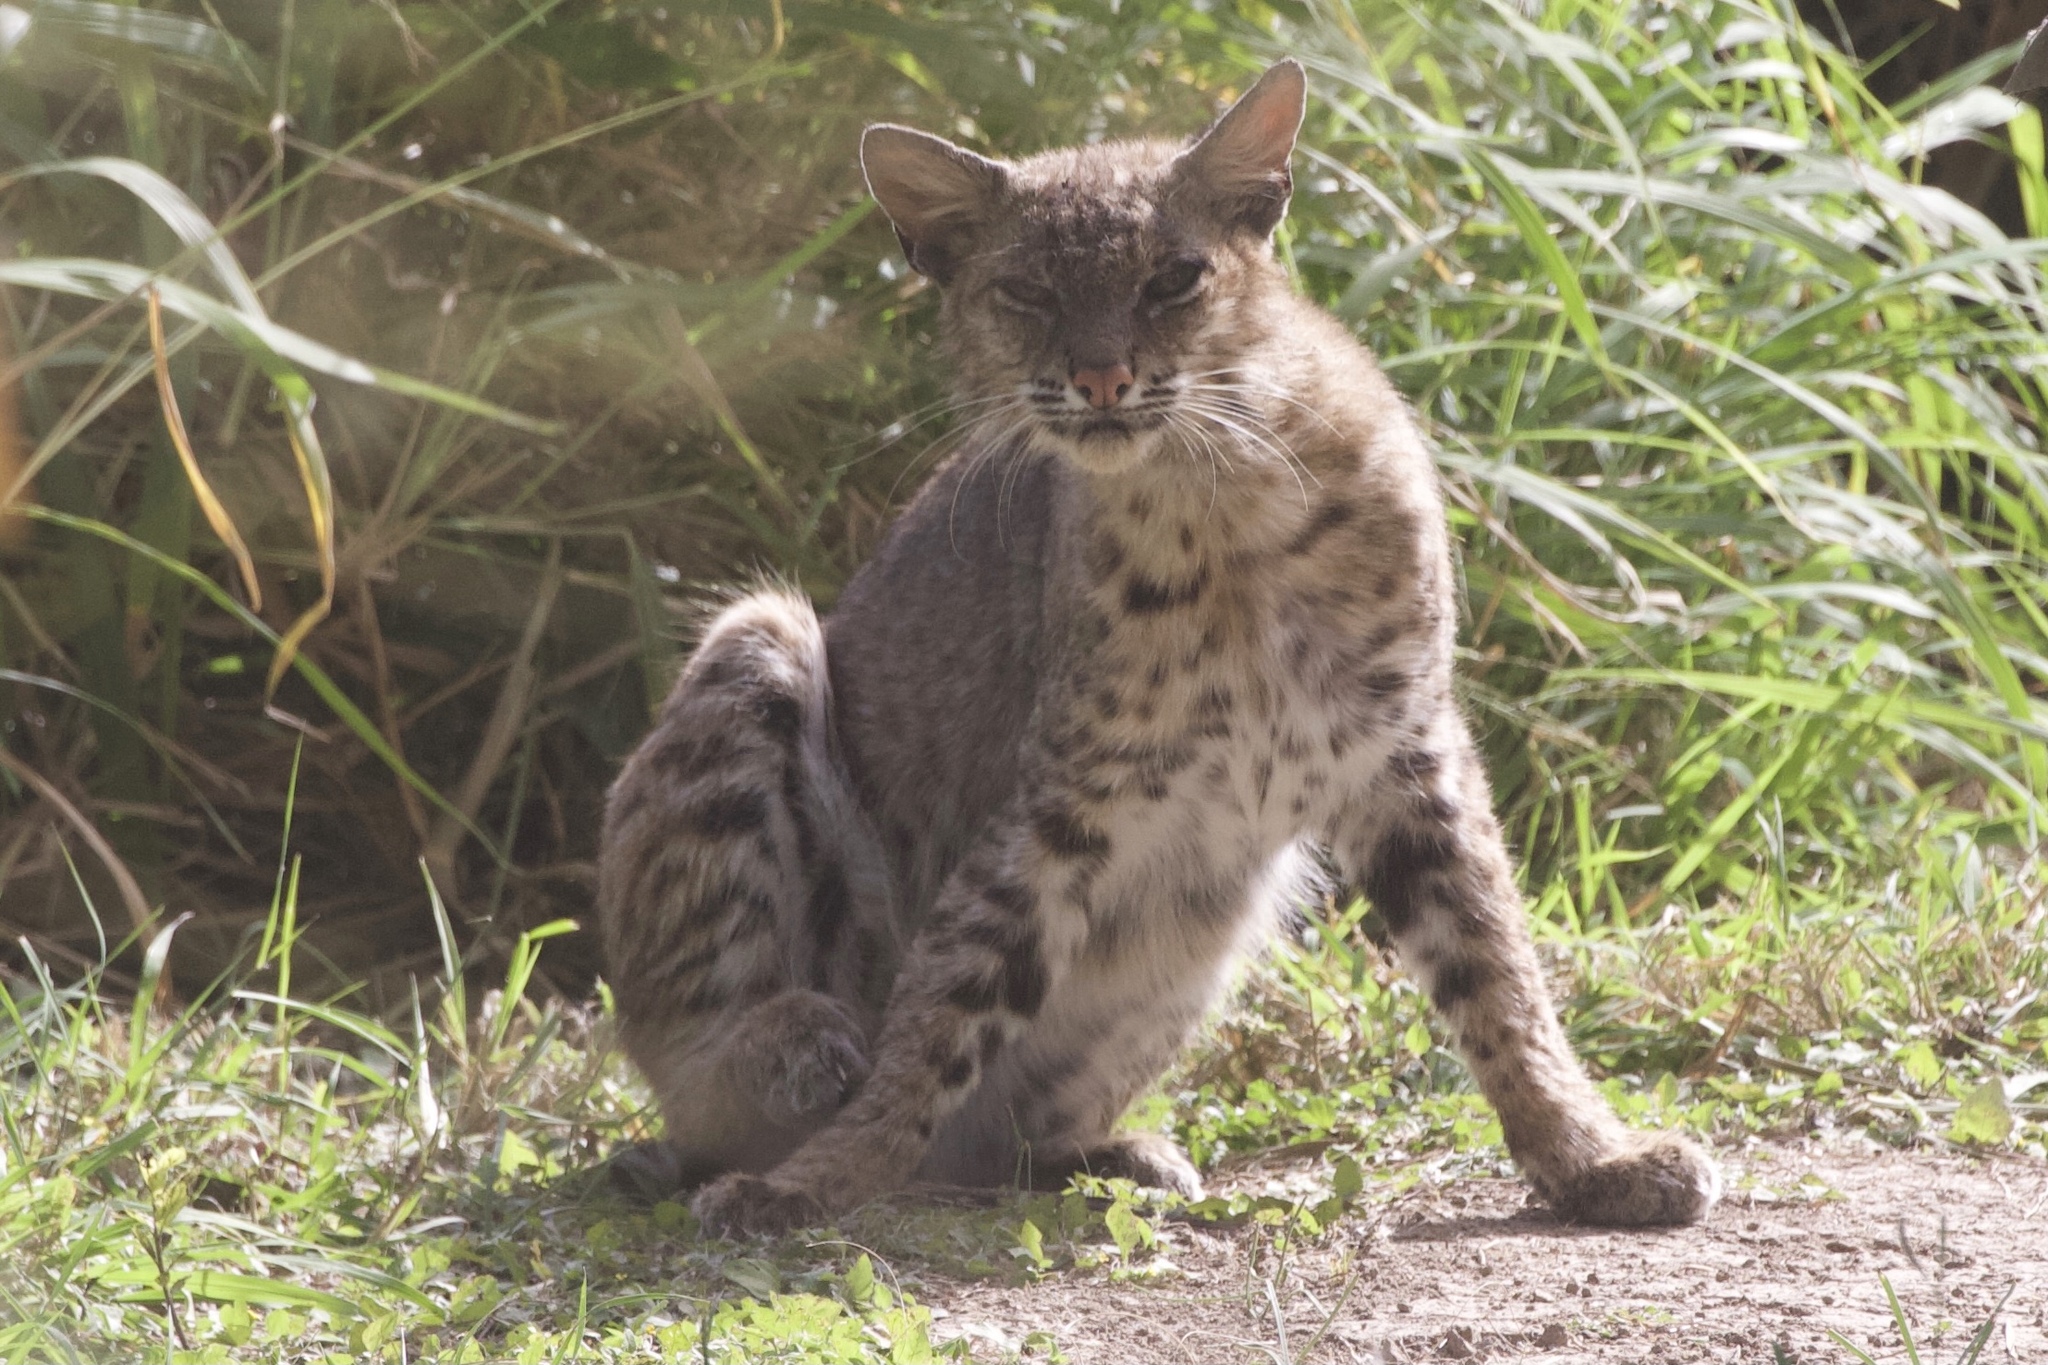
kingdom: Animalia
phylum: Chordata
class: Mammalia
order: Carnivora
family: Felidae
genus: Lynx
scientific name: Lynx rufus
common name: Bobcat
